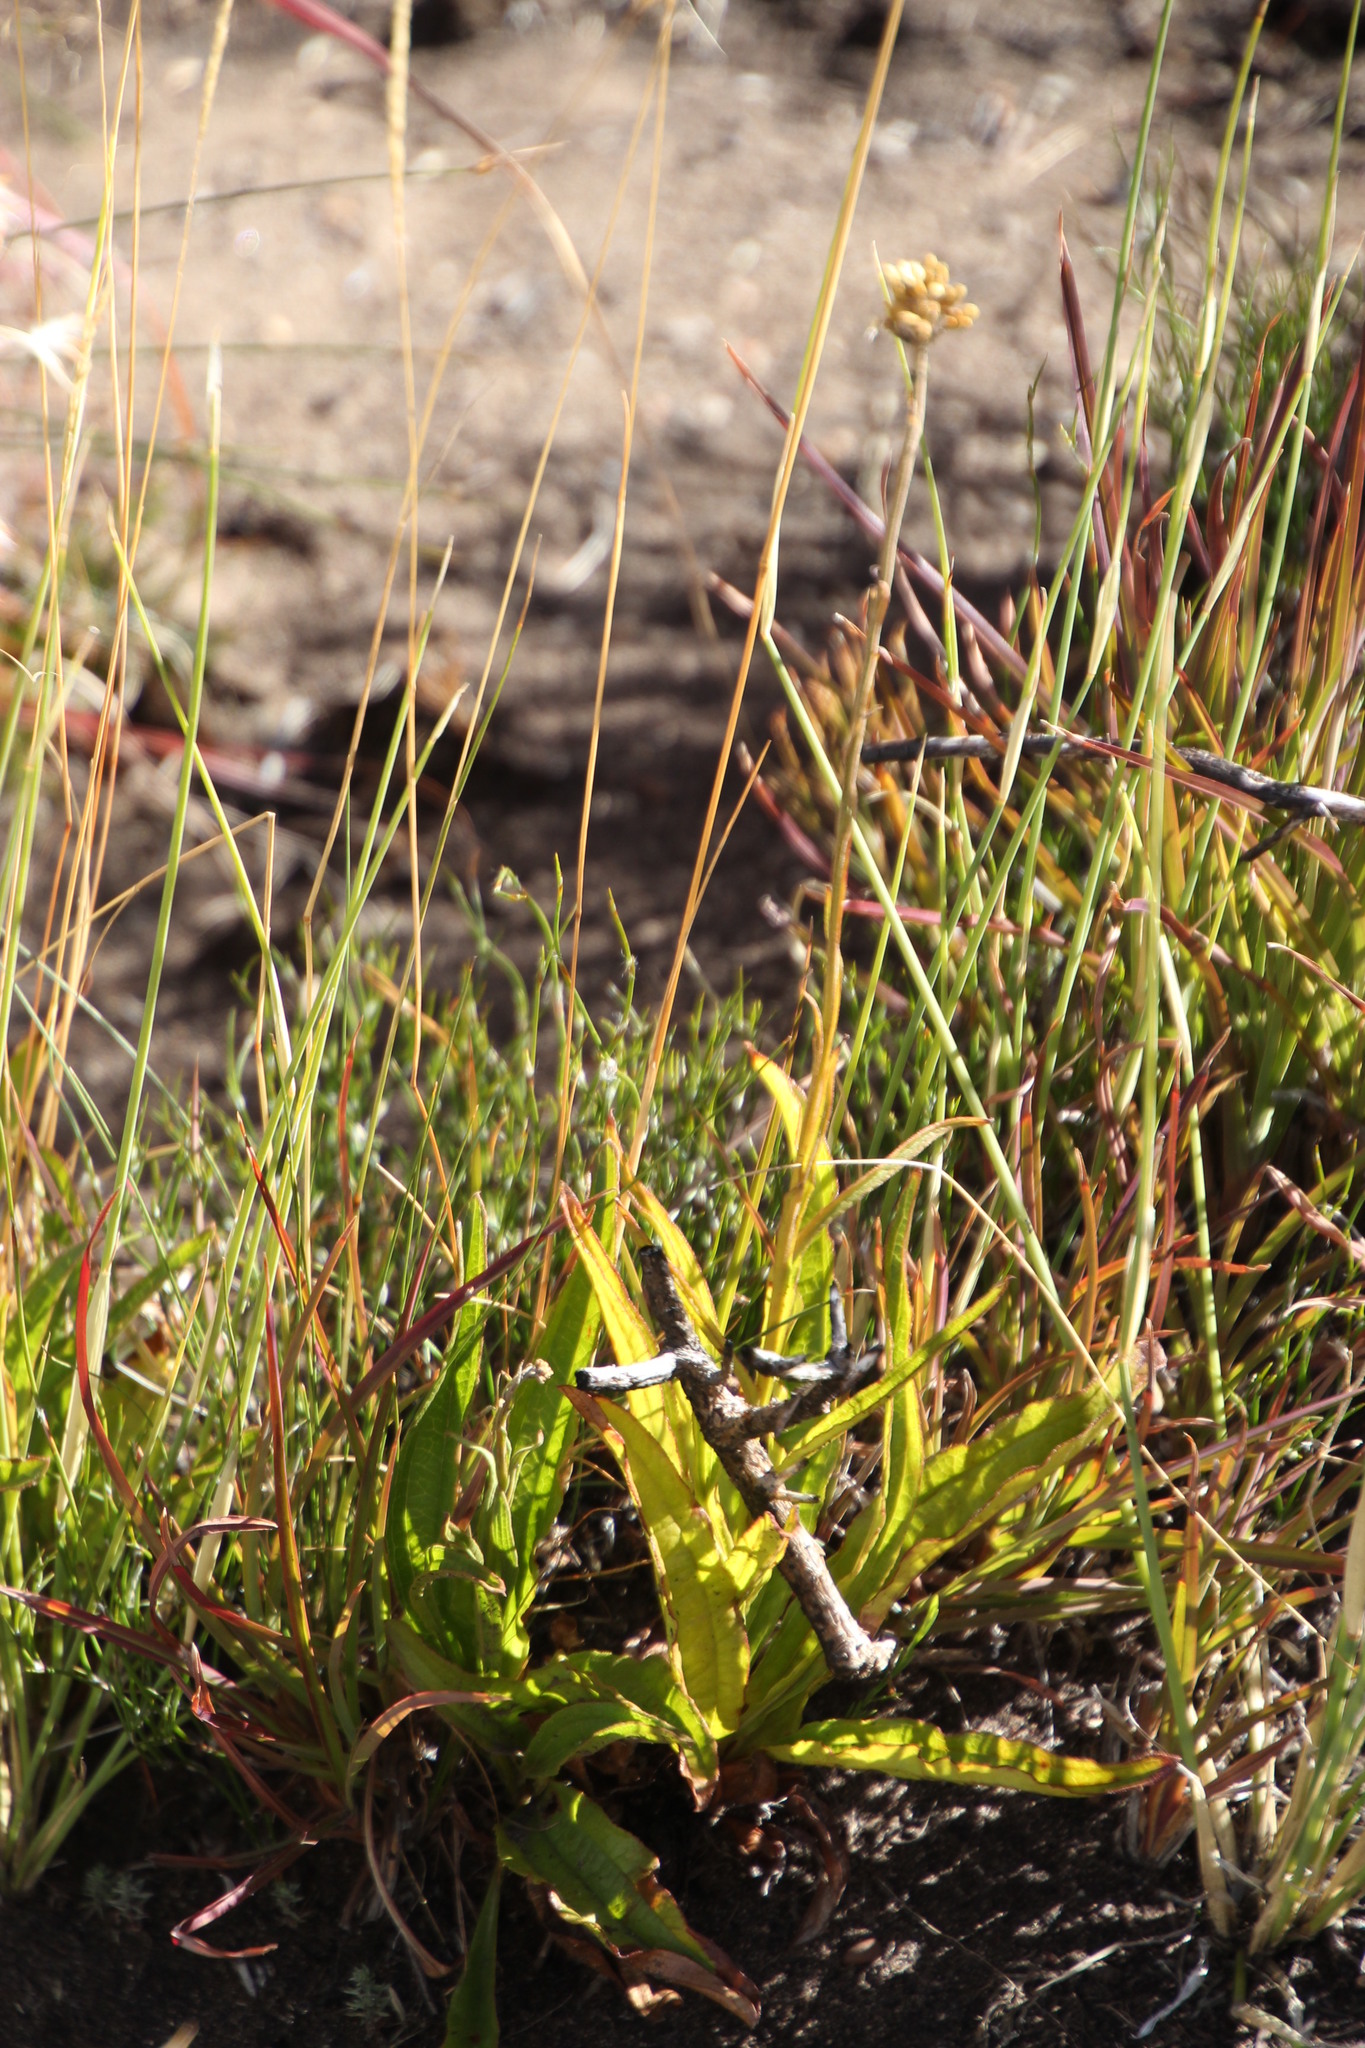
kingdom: Plantae
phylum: Tracheophyta
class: Magnoliopsida
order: Asterales
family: Asteraceae
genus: Helichrysum
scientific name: Helichrysum nudifolium
